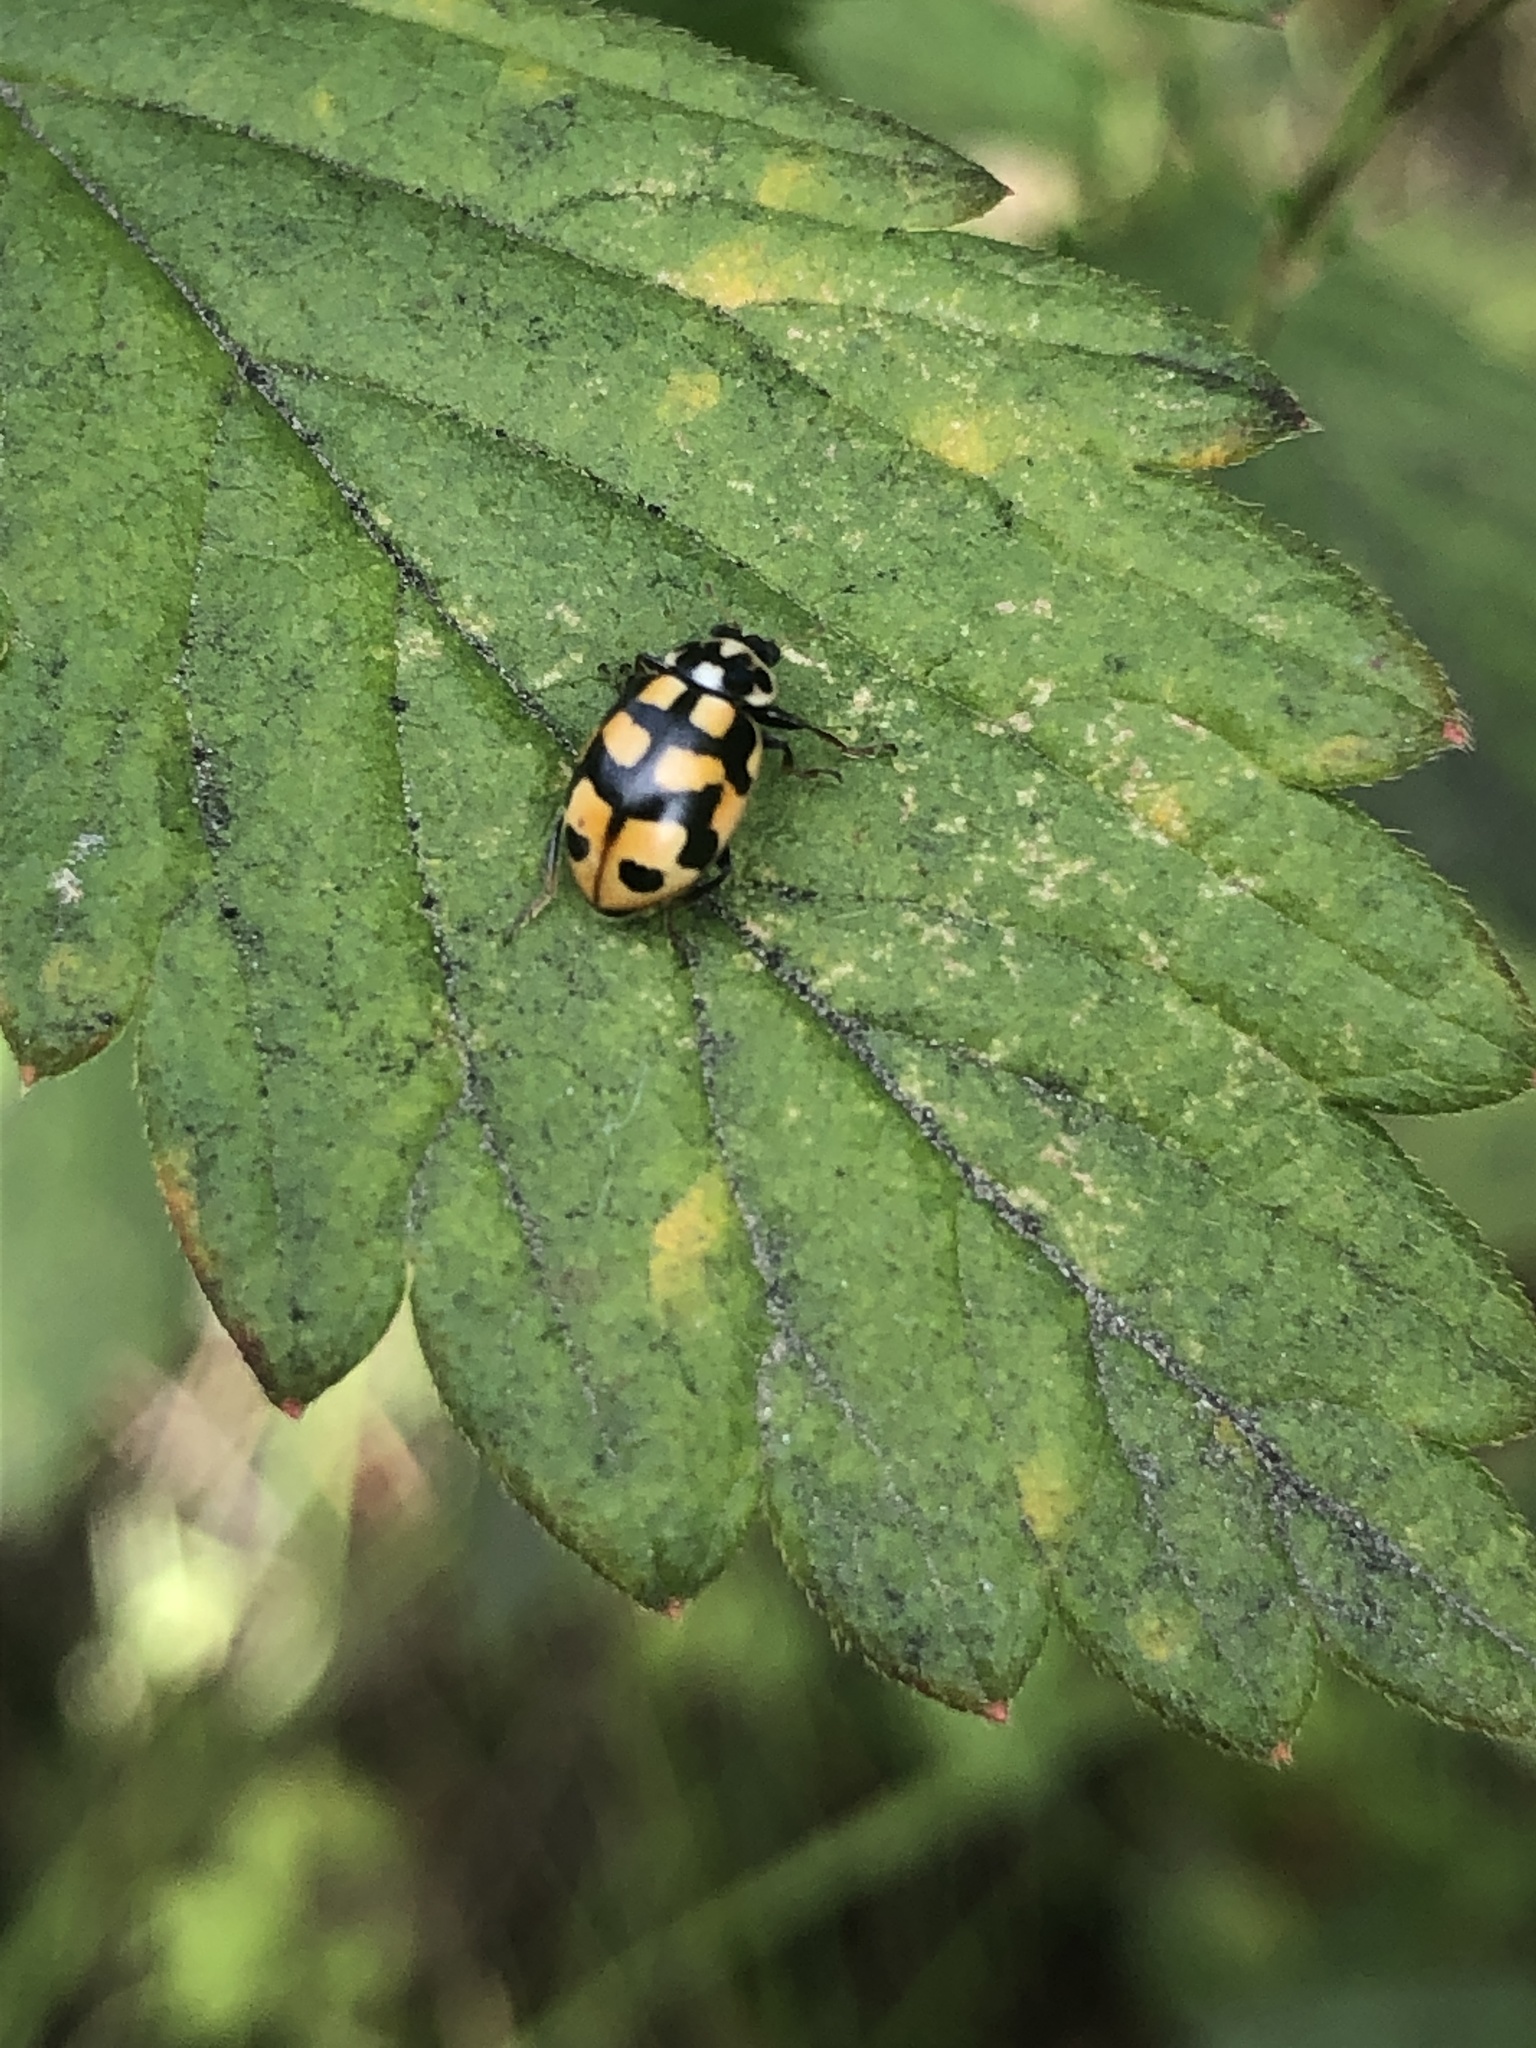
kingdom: Animalia
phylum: Arthropoda
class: Insecta
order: Coleoptera
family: Coccinellidae
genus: Hippodamia
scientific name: Hippodamia arctica
